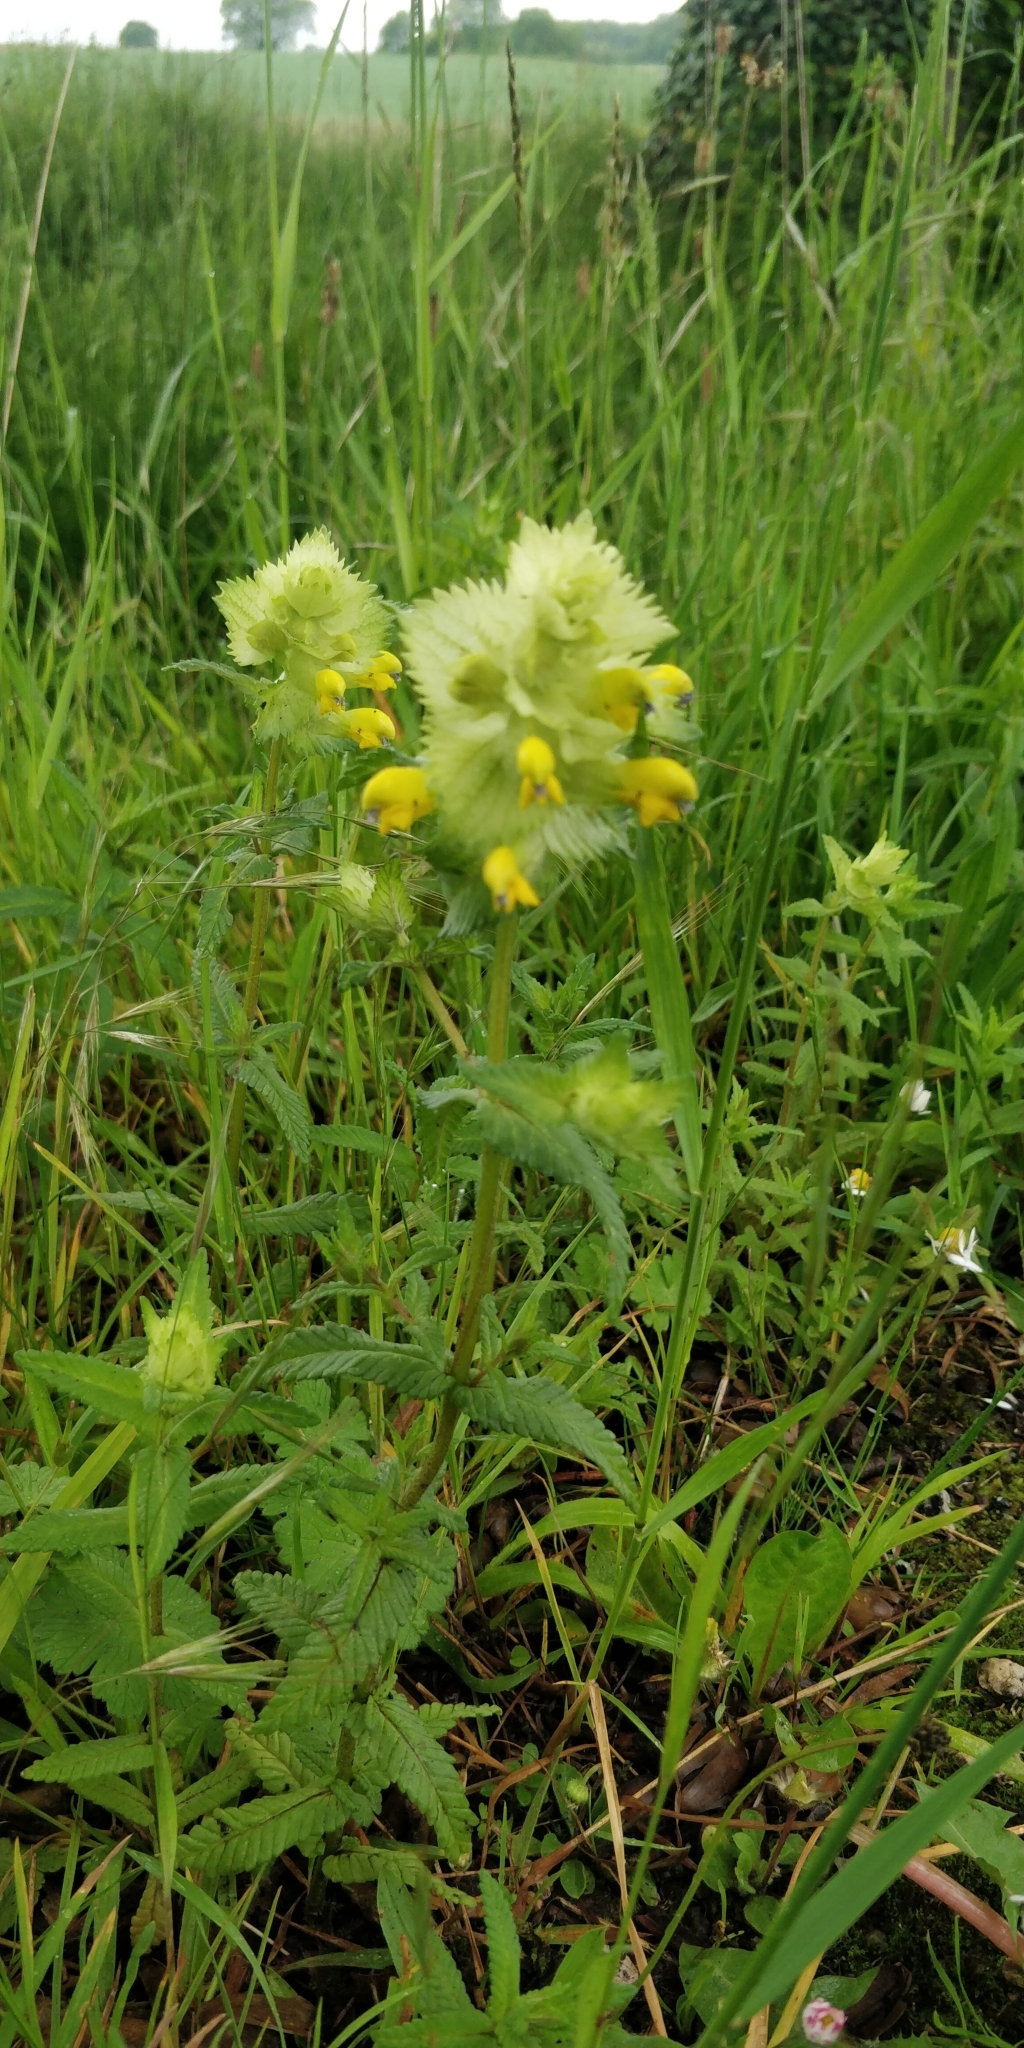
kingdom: Plantae
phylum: Tracheophyta
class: Magnoliopsida
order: Lamiales
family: Orobanchaceae
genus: Rhinanthus
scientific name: Rhinanthus alectorolophus
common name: Greater yellow-rattle
